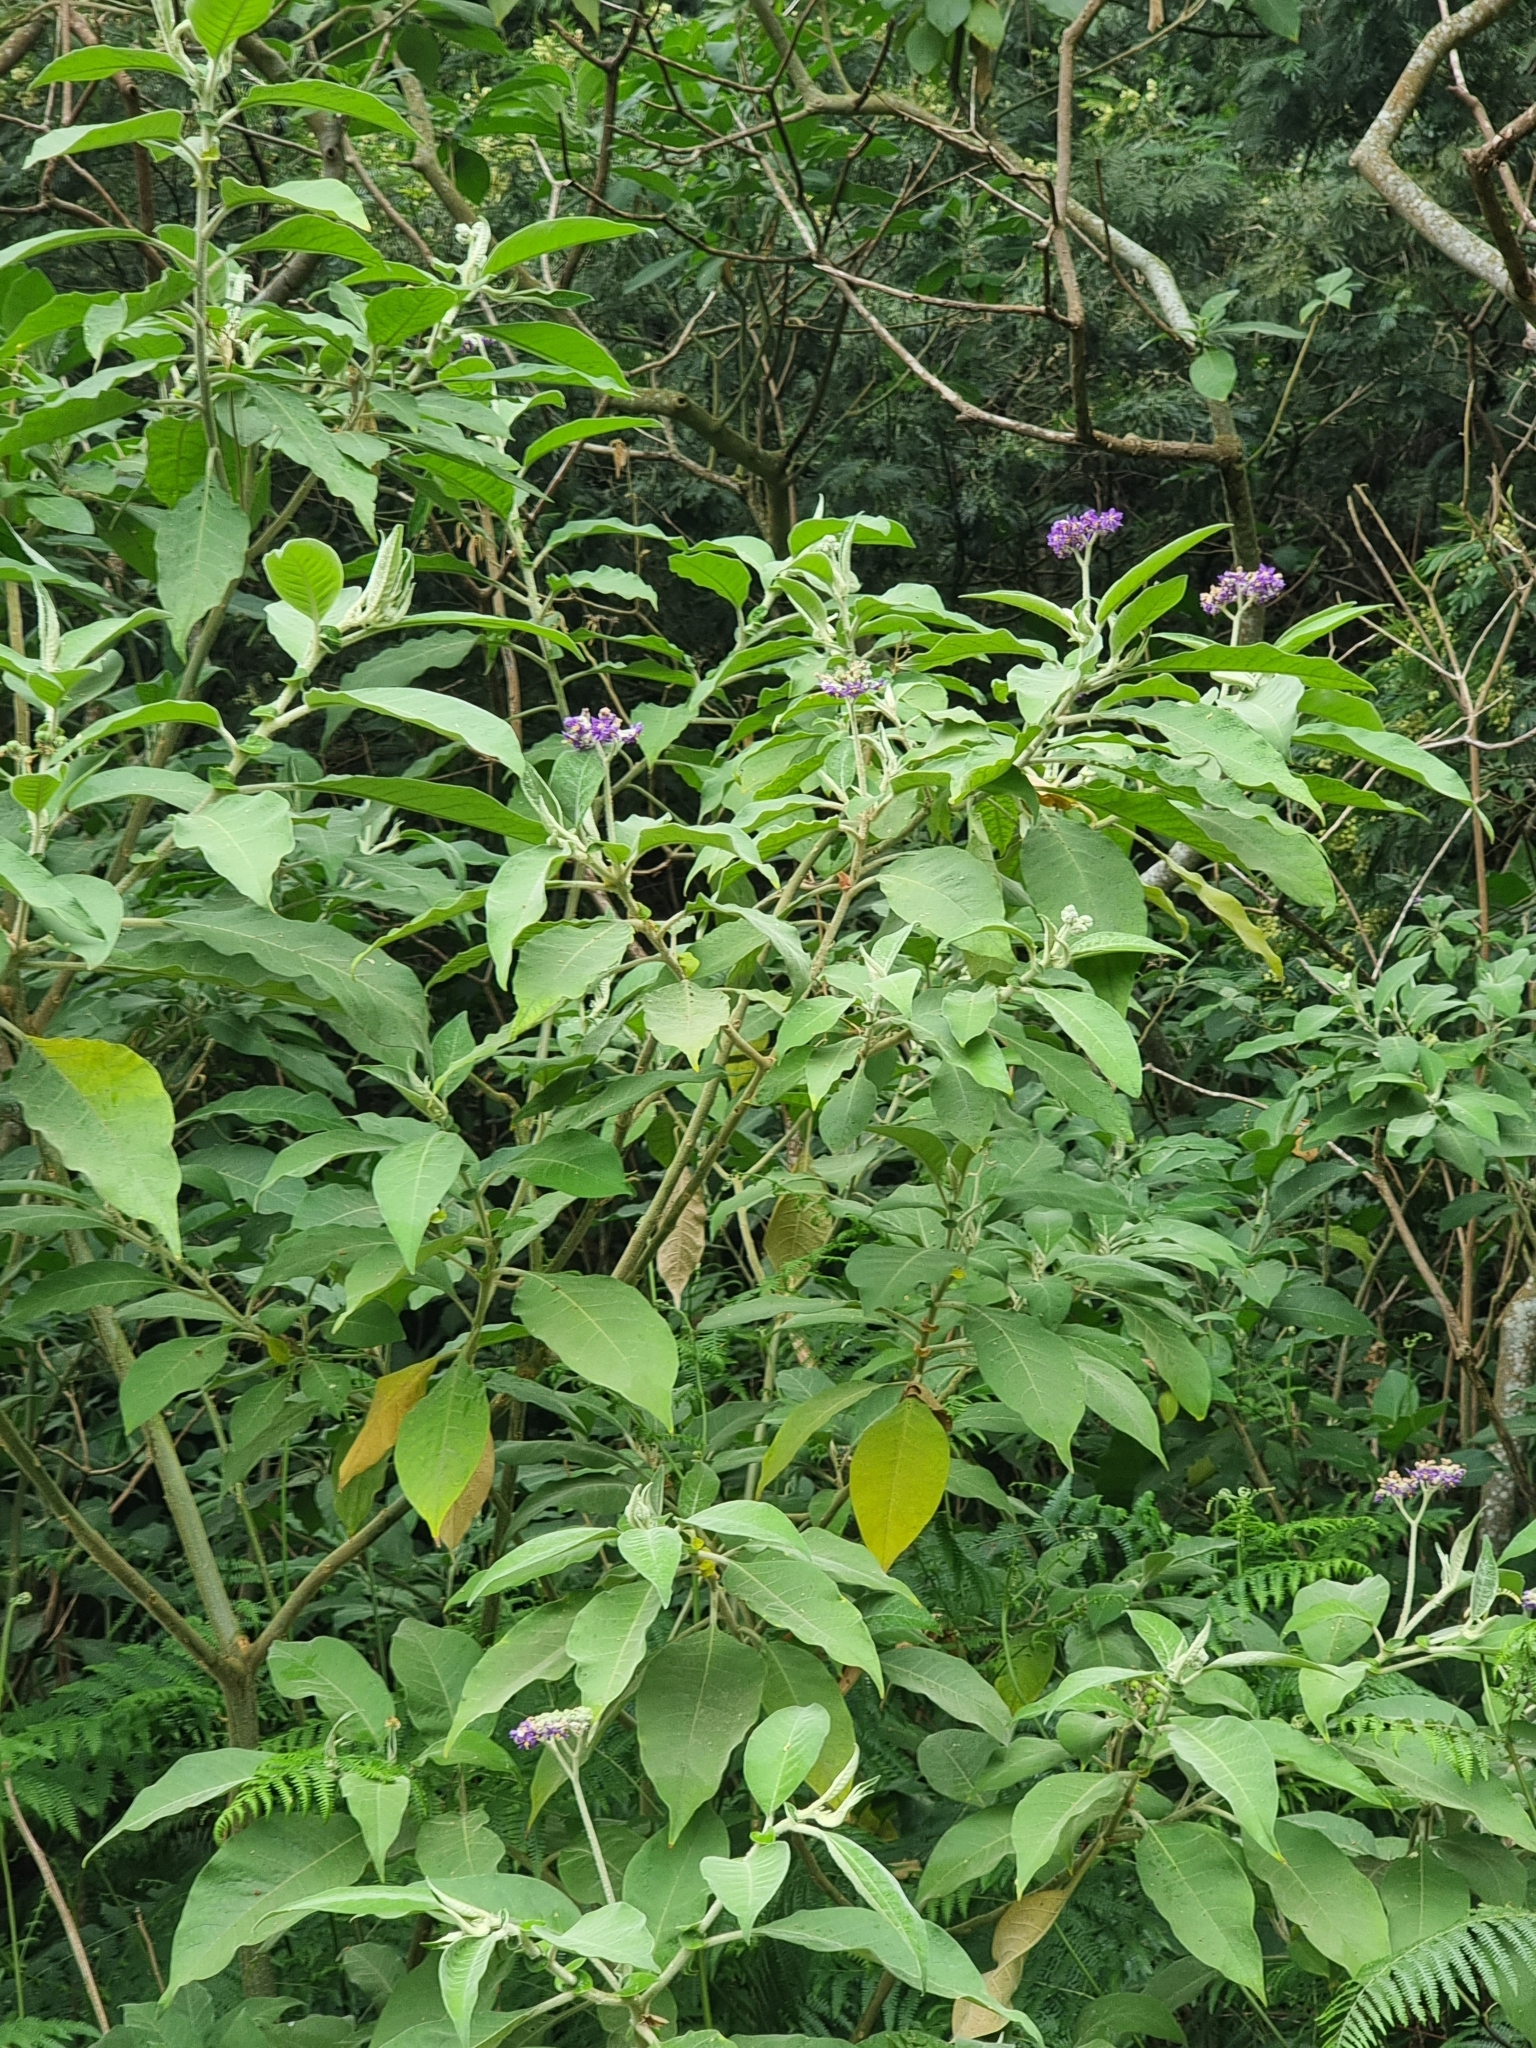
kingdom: Plantae
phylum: Tracheophyta
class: Magnoliopsida
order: Solanales
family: Solanaceae
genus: Solanum
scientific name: Solanum mauritianum
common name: Earleaf nightshade
